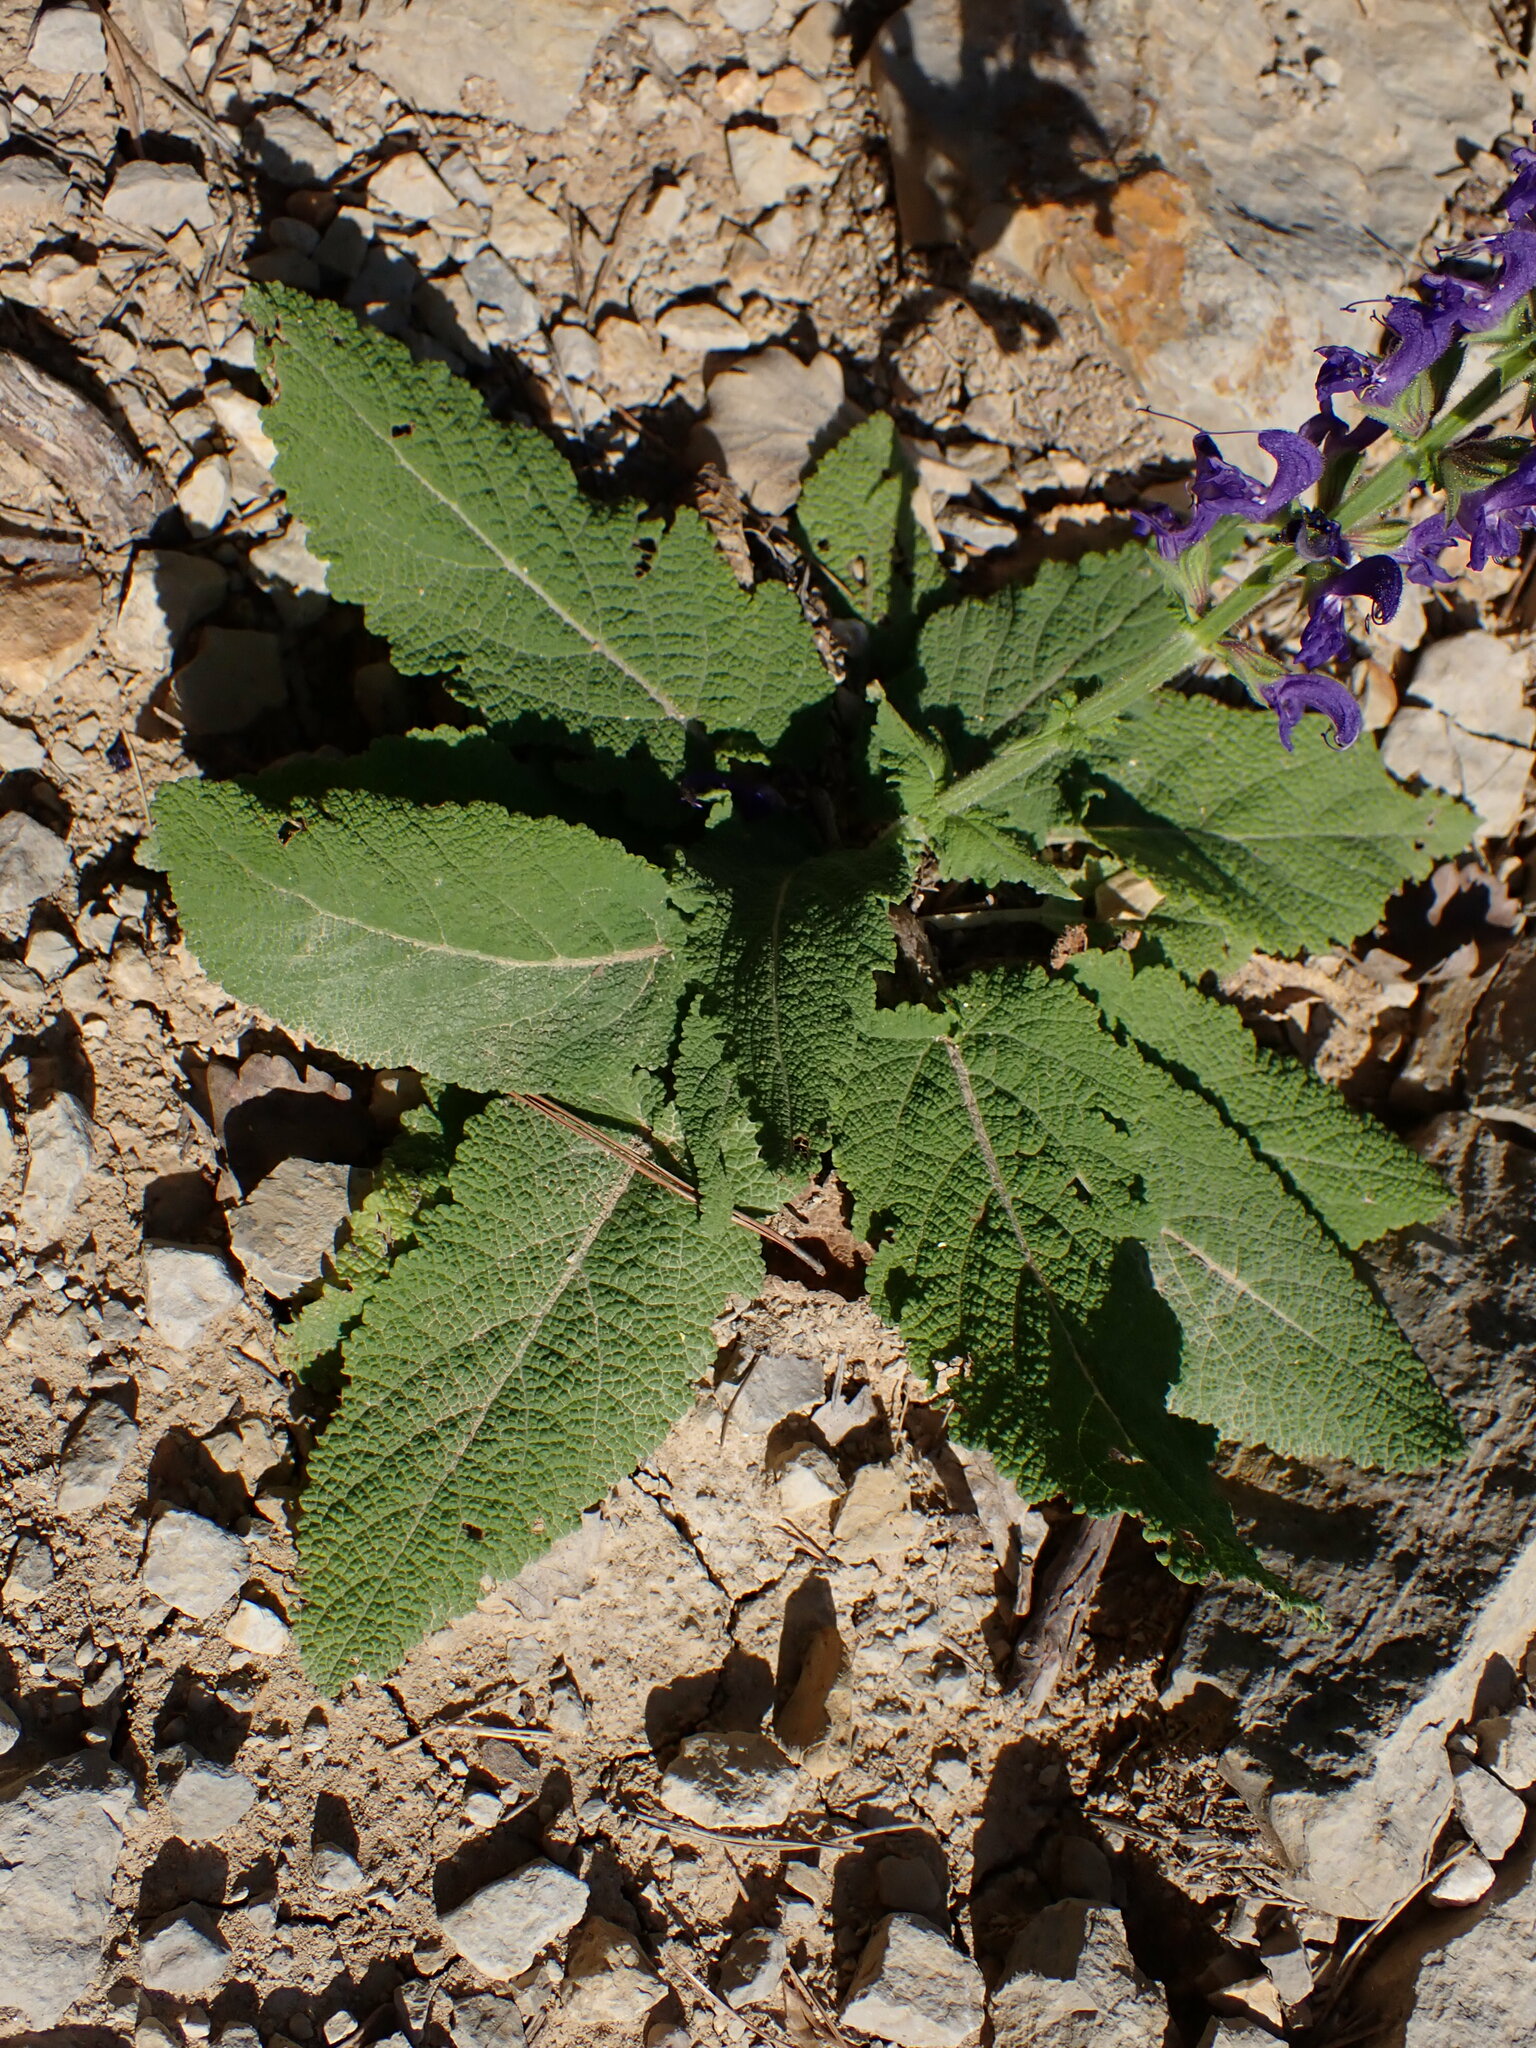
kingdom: Plantae
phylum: Tracheophyta
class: Magnoliopsida
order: Lamiales
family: Lamiaceae
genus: Salvia
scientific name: Salvia pratensis
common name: Meadow sage
